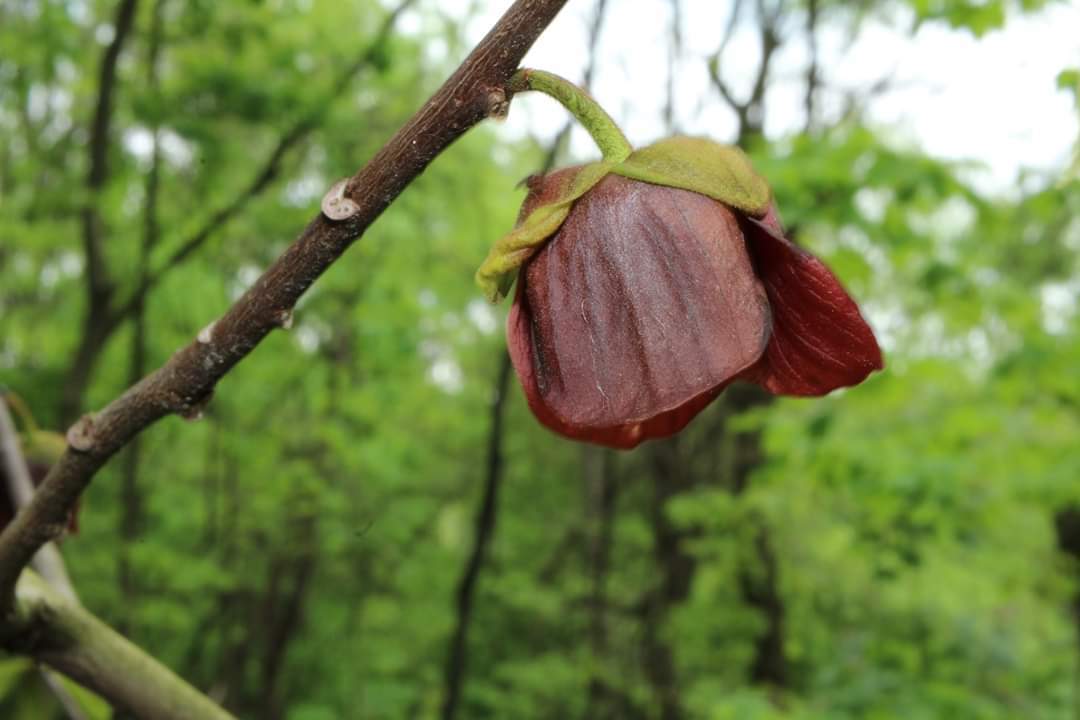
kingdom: Plantae
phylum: Tracheophyta
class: Magnoliopsida
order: Magnoliales
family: Annonaceae
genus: Asimina
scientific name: Asimina triloba
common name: Dog-banana
